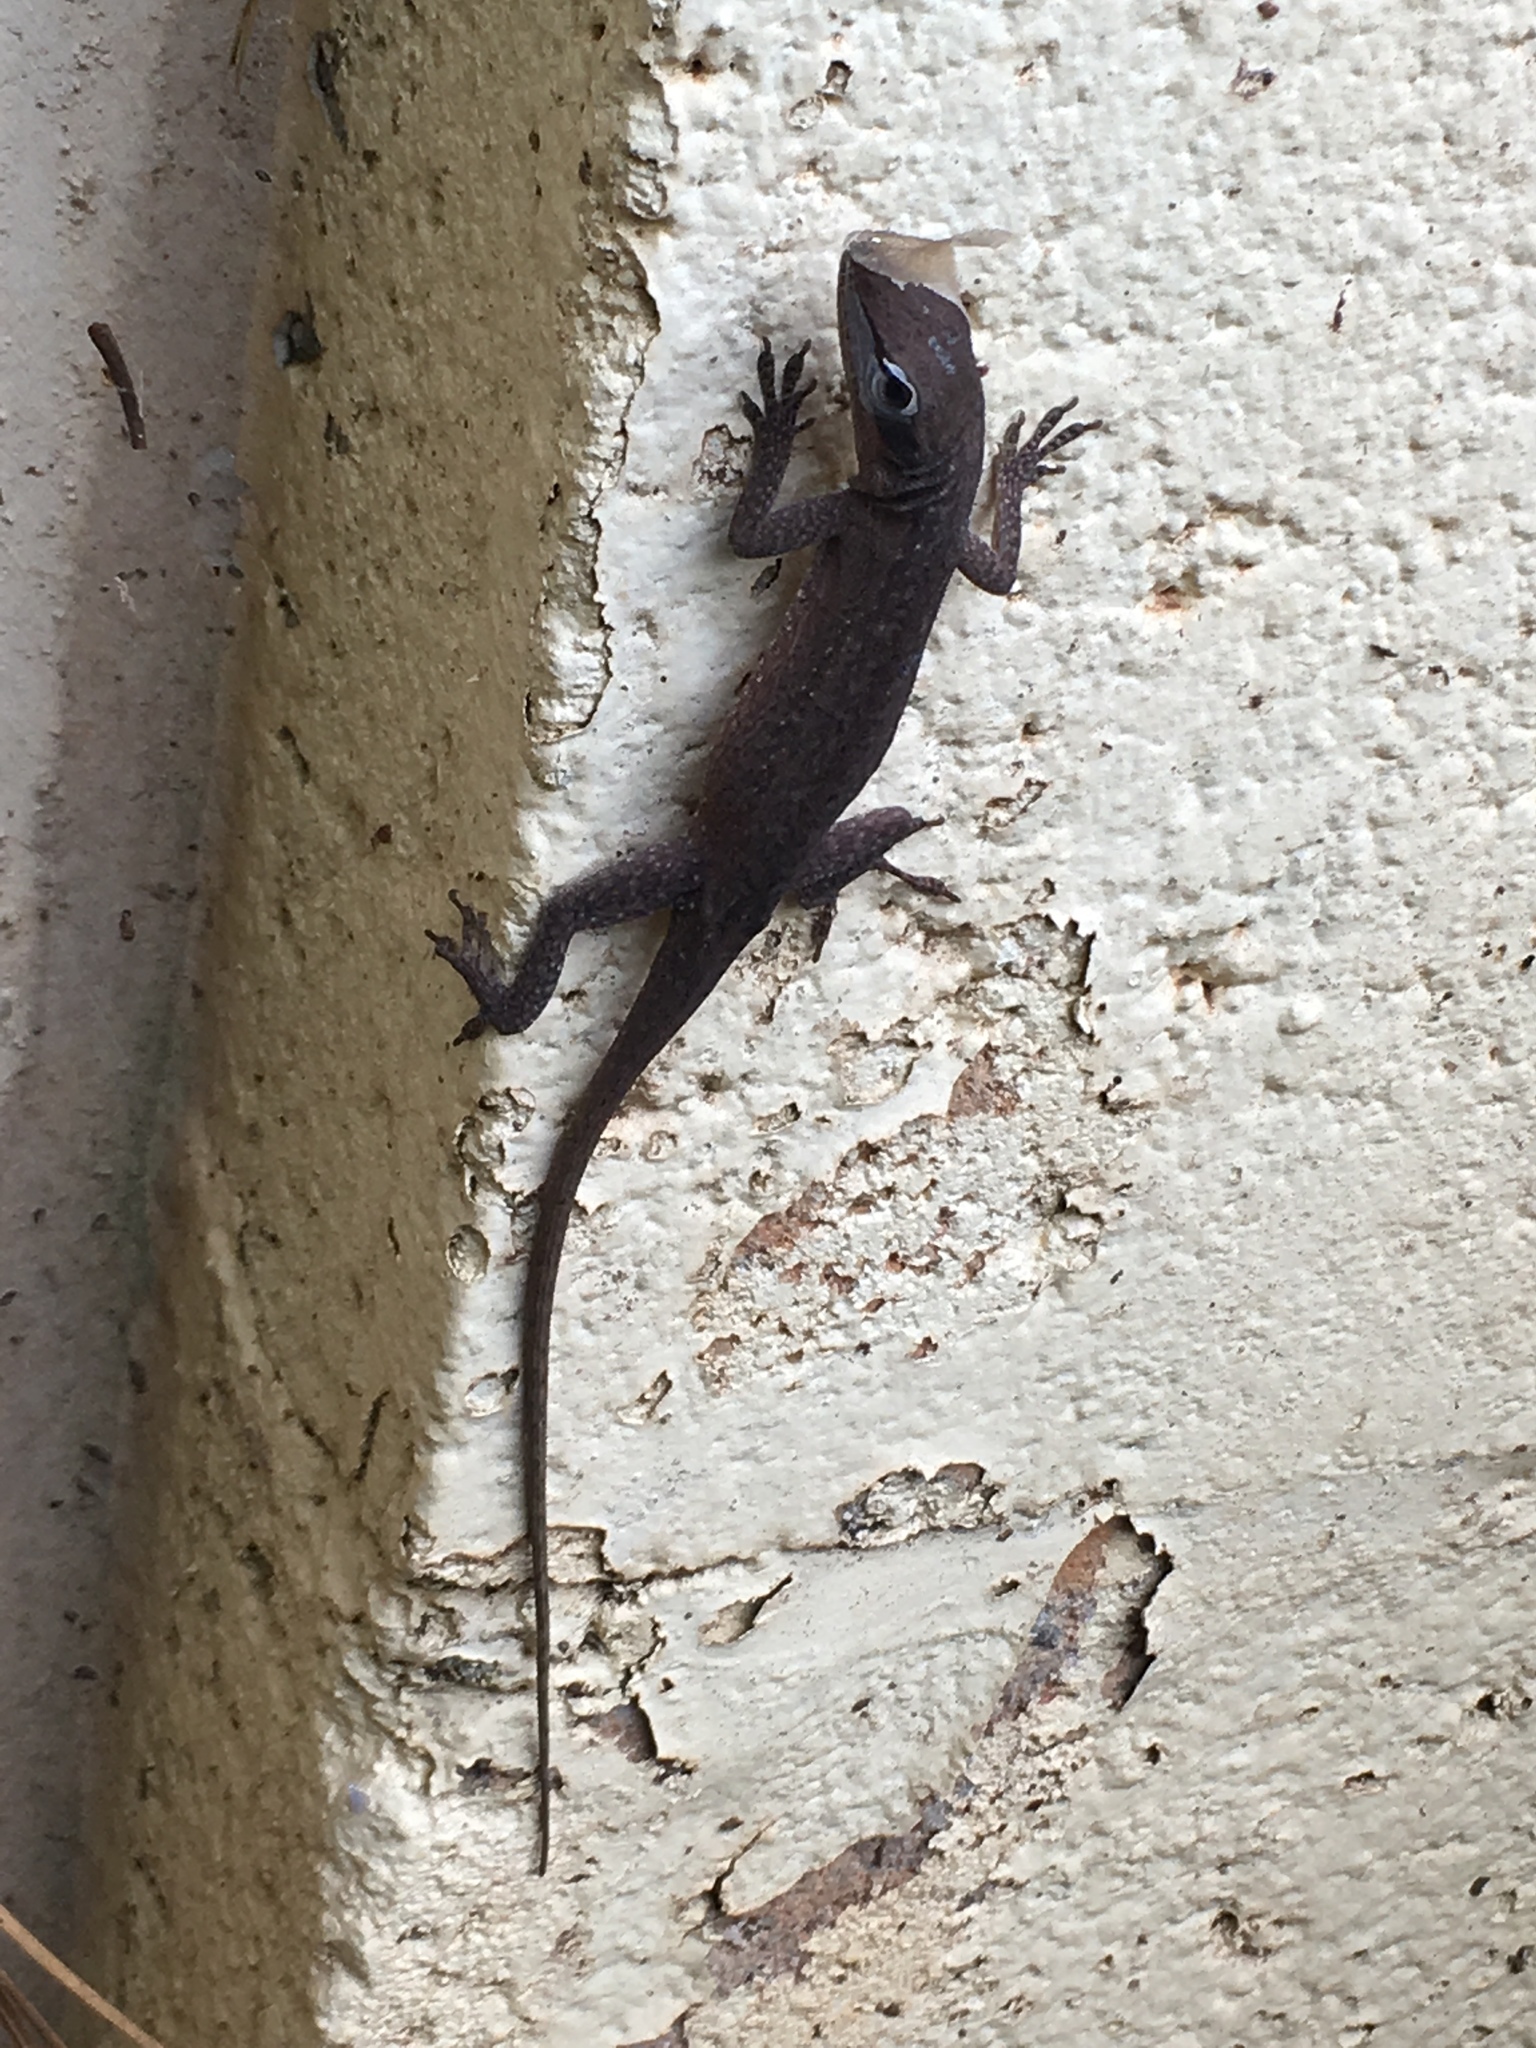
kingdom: Animalia
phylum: Chordata
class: Squamata
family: Dactyloidae
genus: Anolis
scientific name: Anolis carolinensis
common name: Green anole
